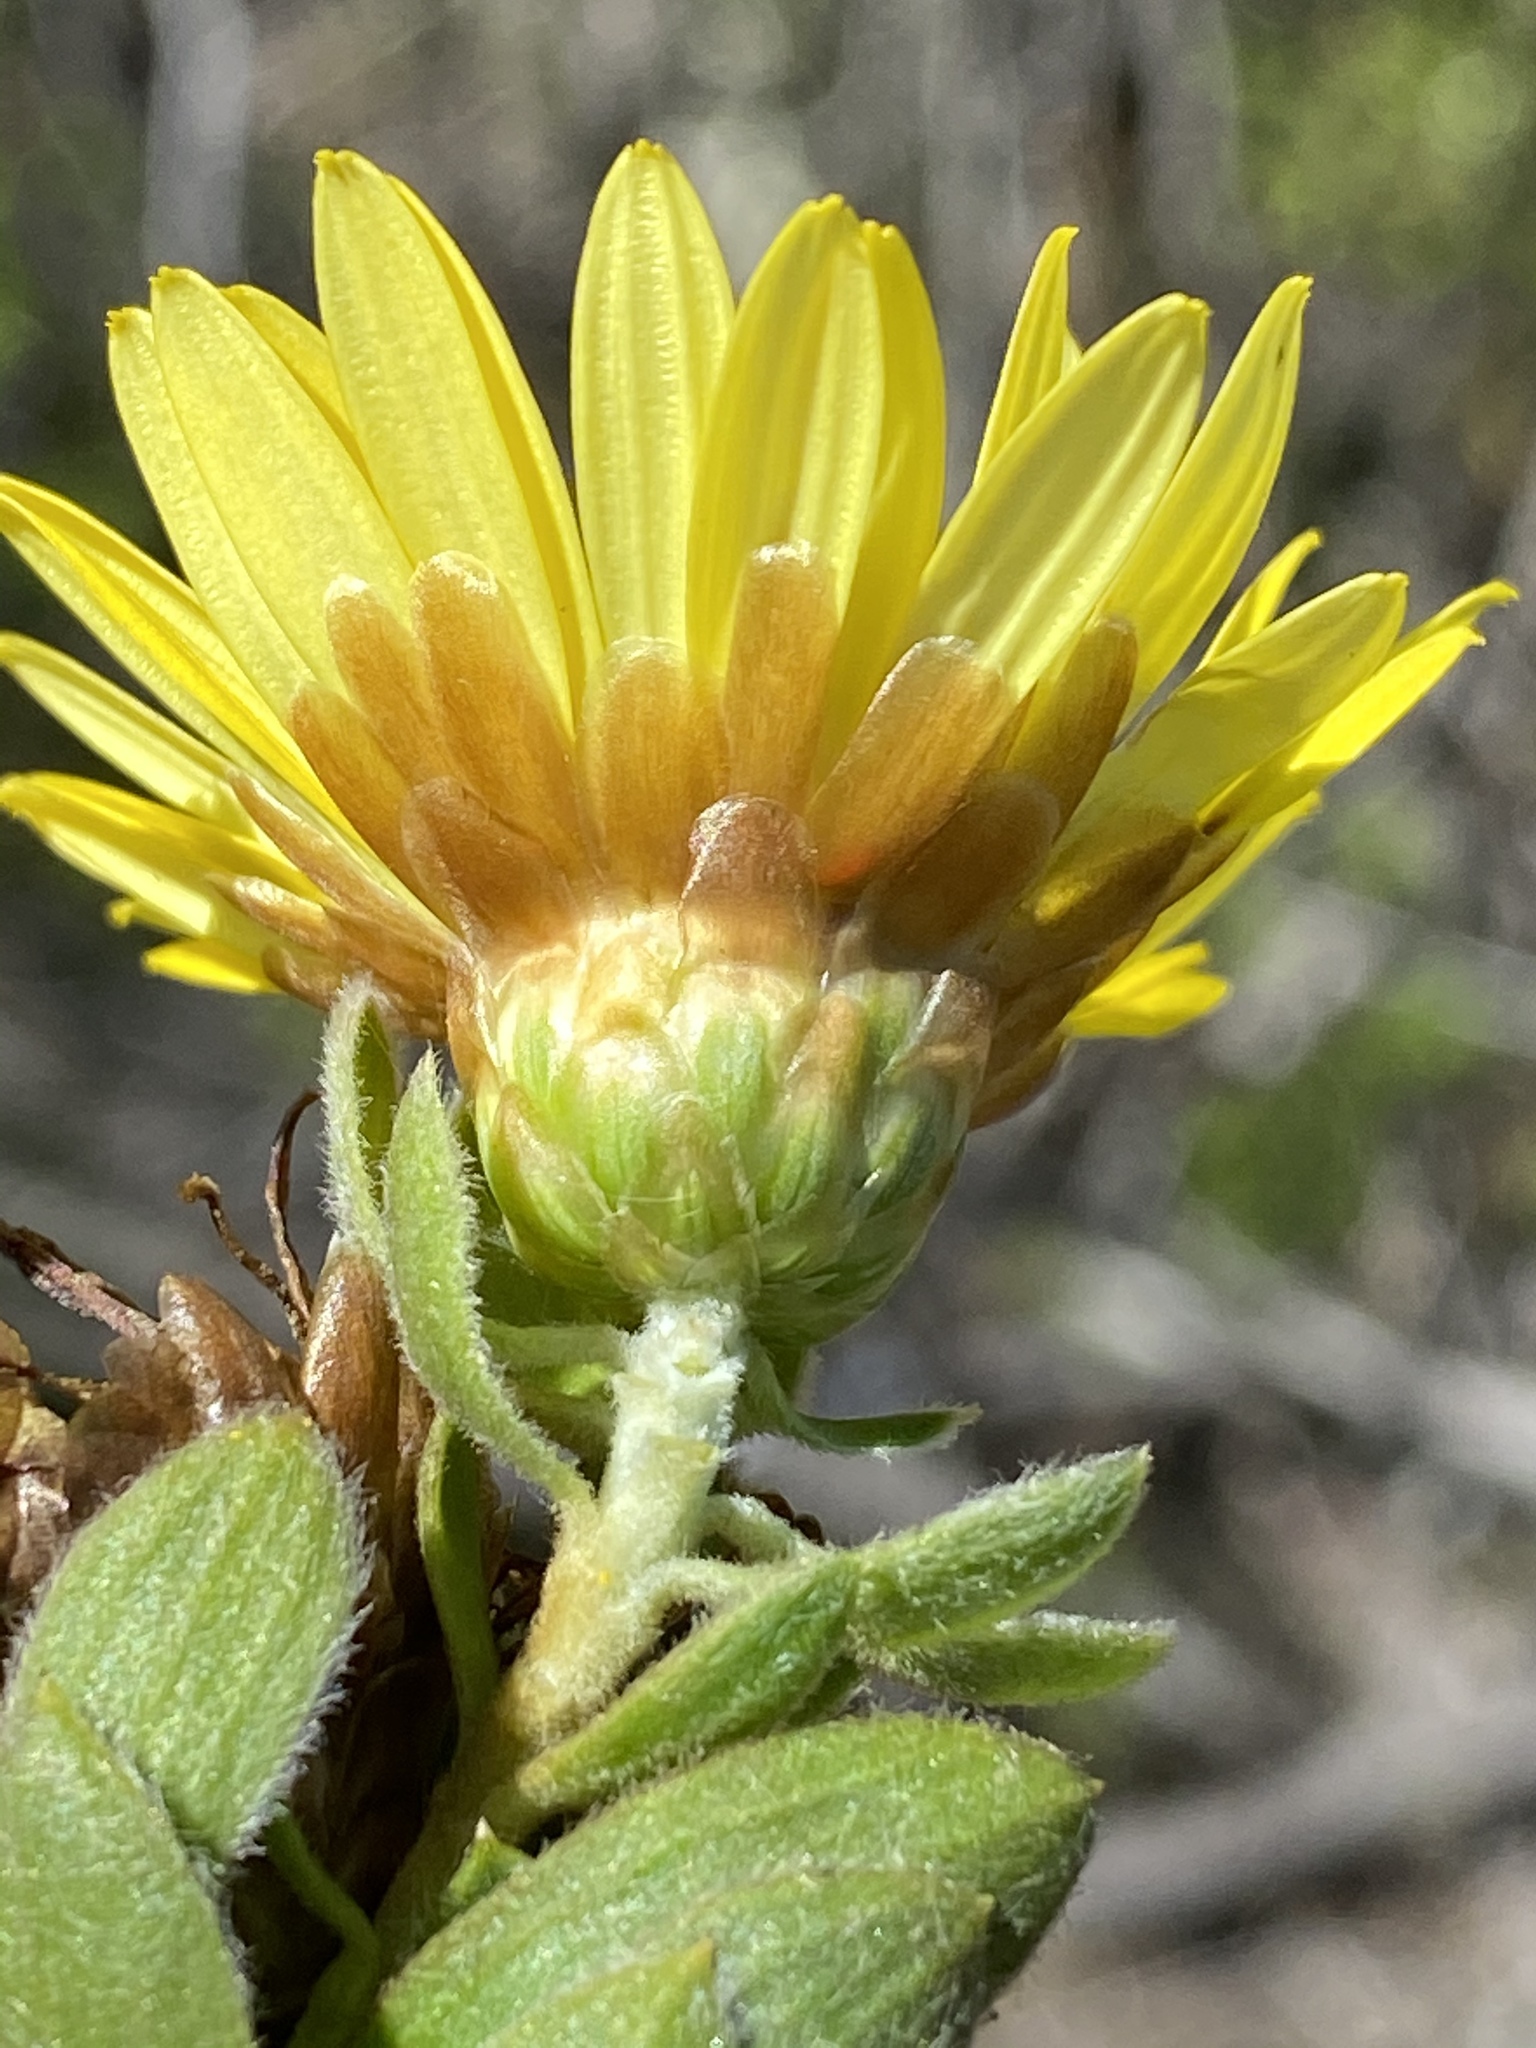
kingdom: Plantae
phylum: Tracheophyta
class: Magnoliopsida
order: Asterales
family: Asteraceae
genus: Oedera
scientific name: Oedera calycina
